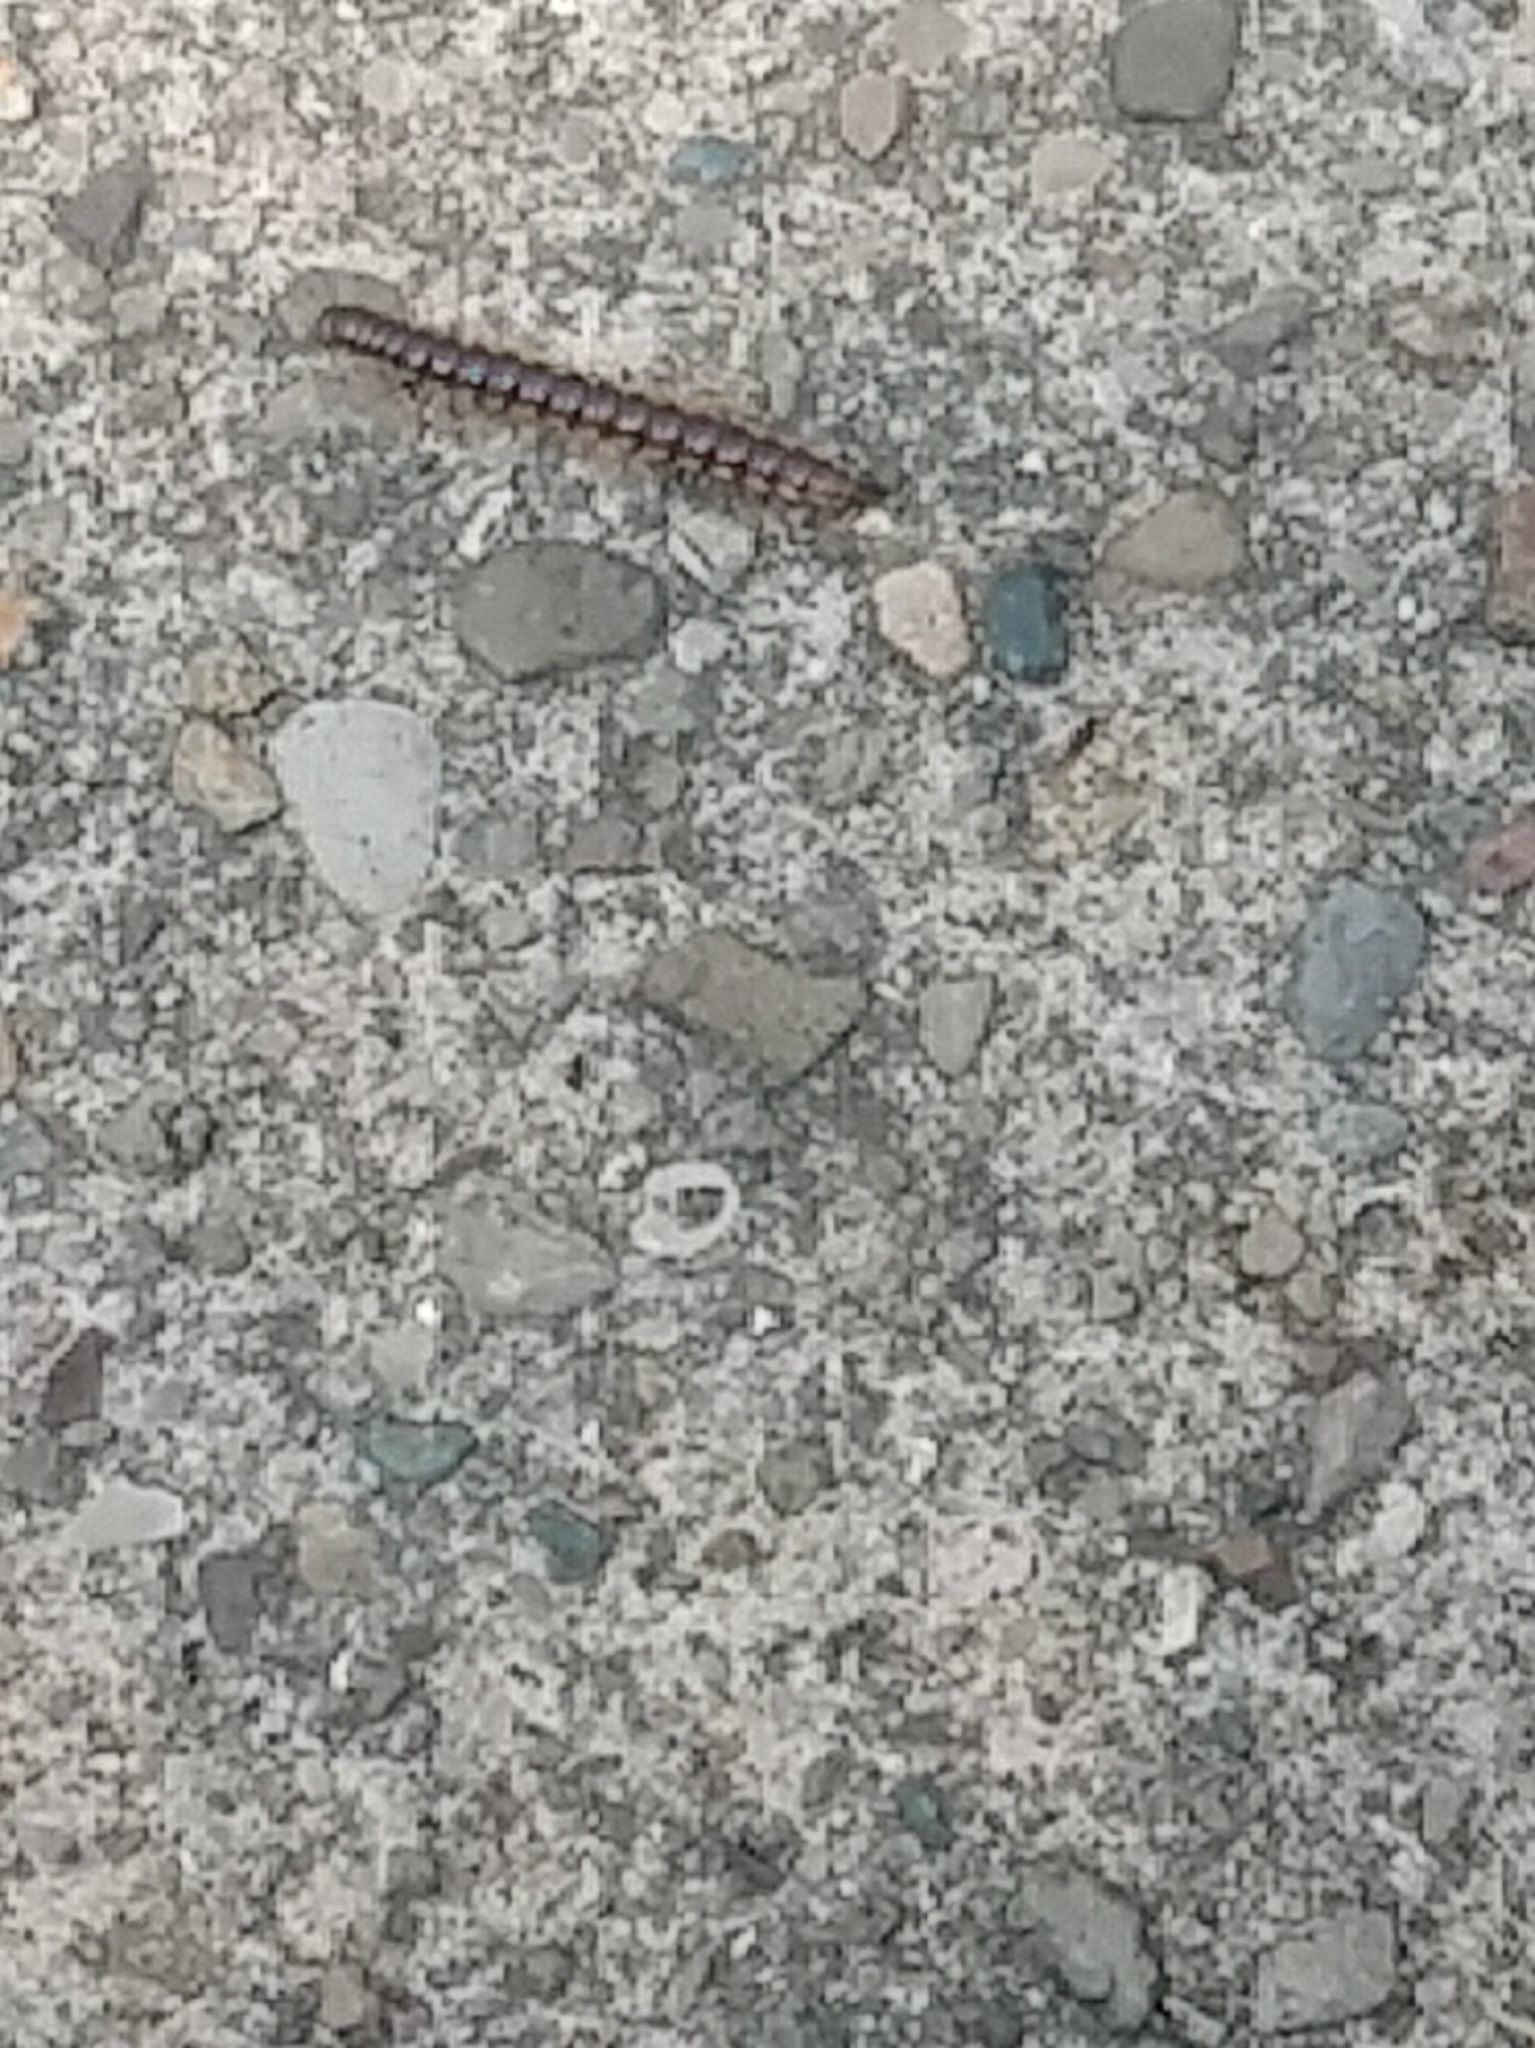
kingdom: Animalia
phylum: Arthropoda
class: Diplopoda
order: Polydesmida
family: Paradoxosomatidae
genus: Oxidus
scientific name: Oxidus gracilis
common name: Greenhouse millipede
